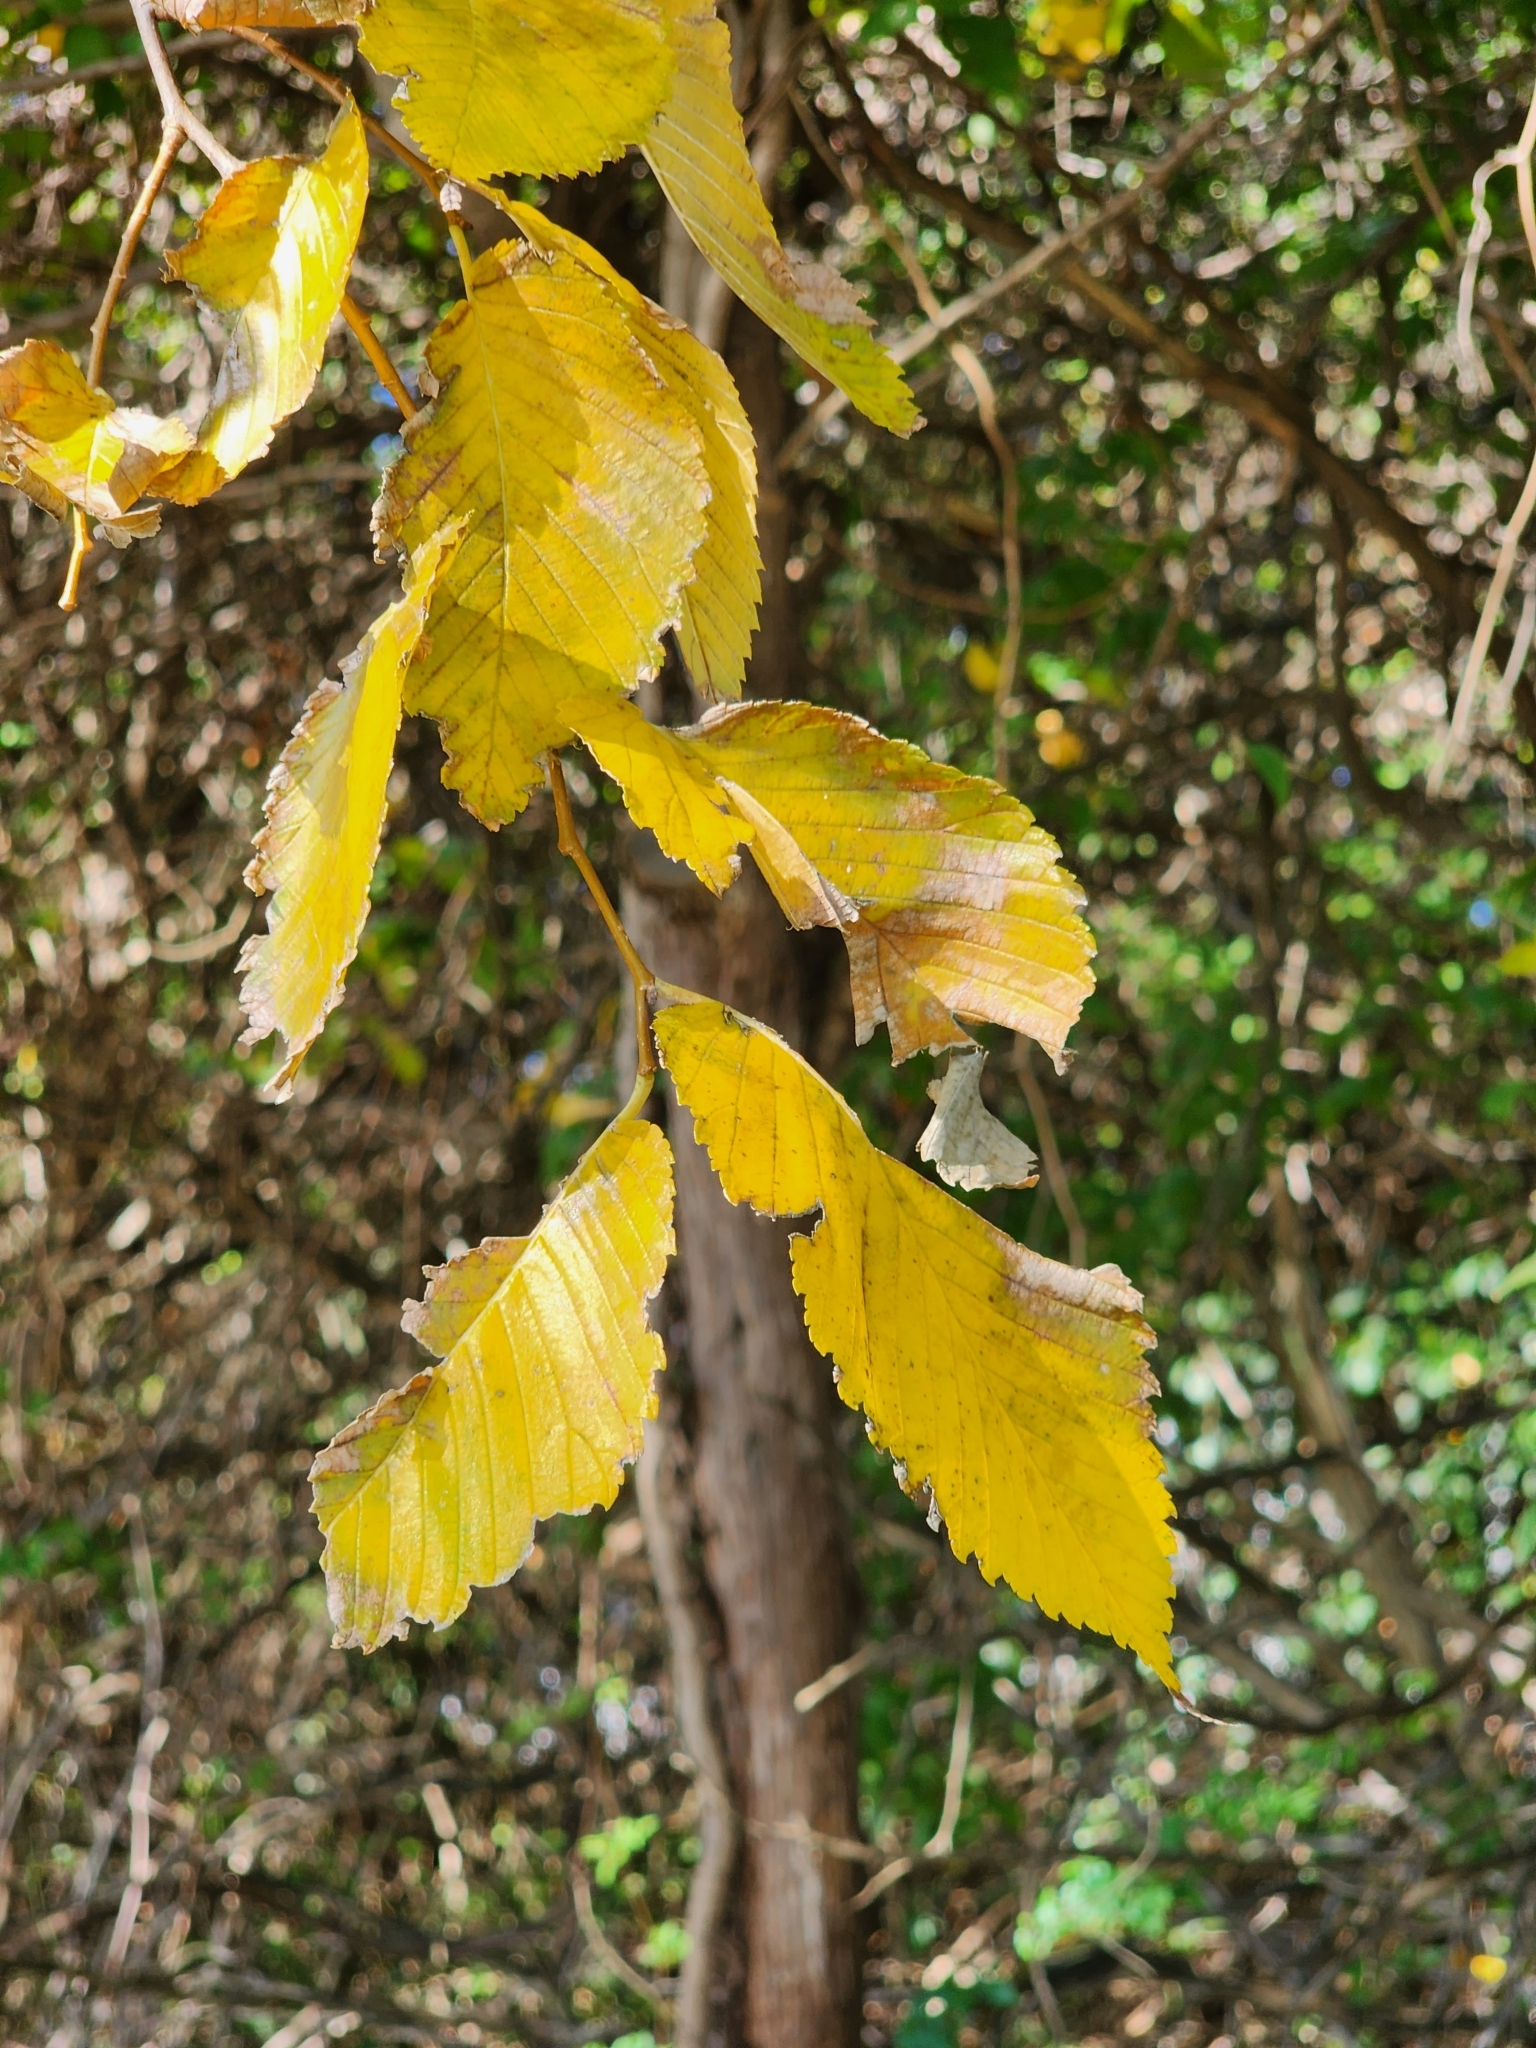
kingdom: Plantae
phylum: Tracheophyta
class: Magnoliopsida
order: Rosales
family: Ulmaceae
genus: Ulmus
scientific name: Ulmus americana
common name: American elm
